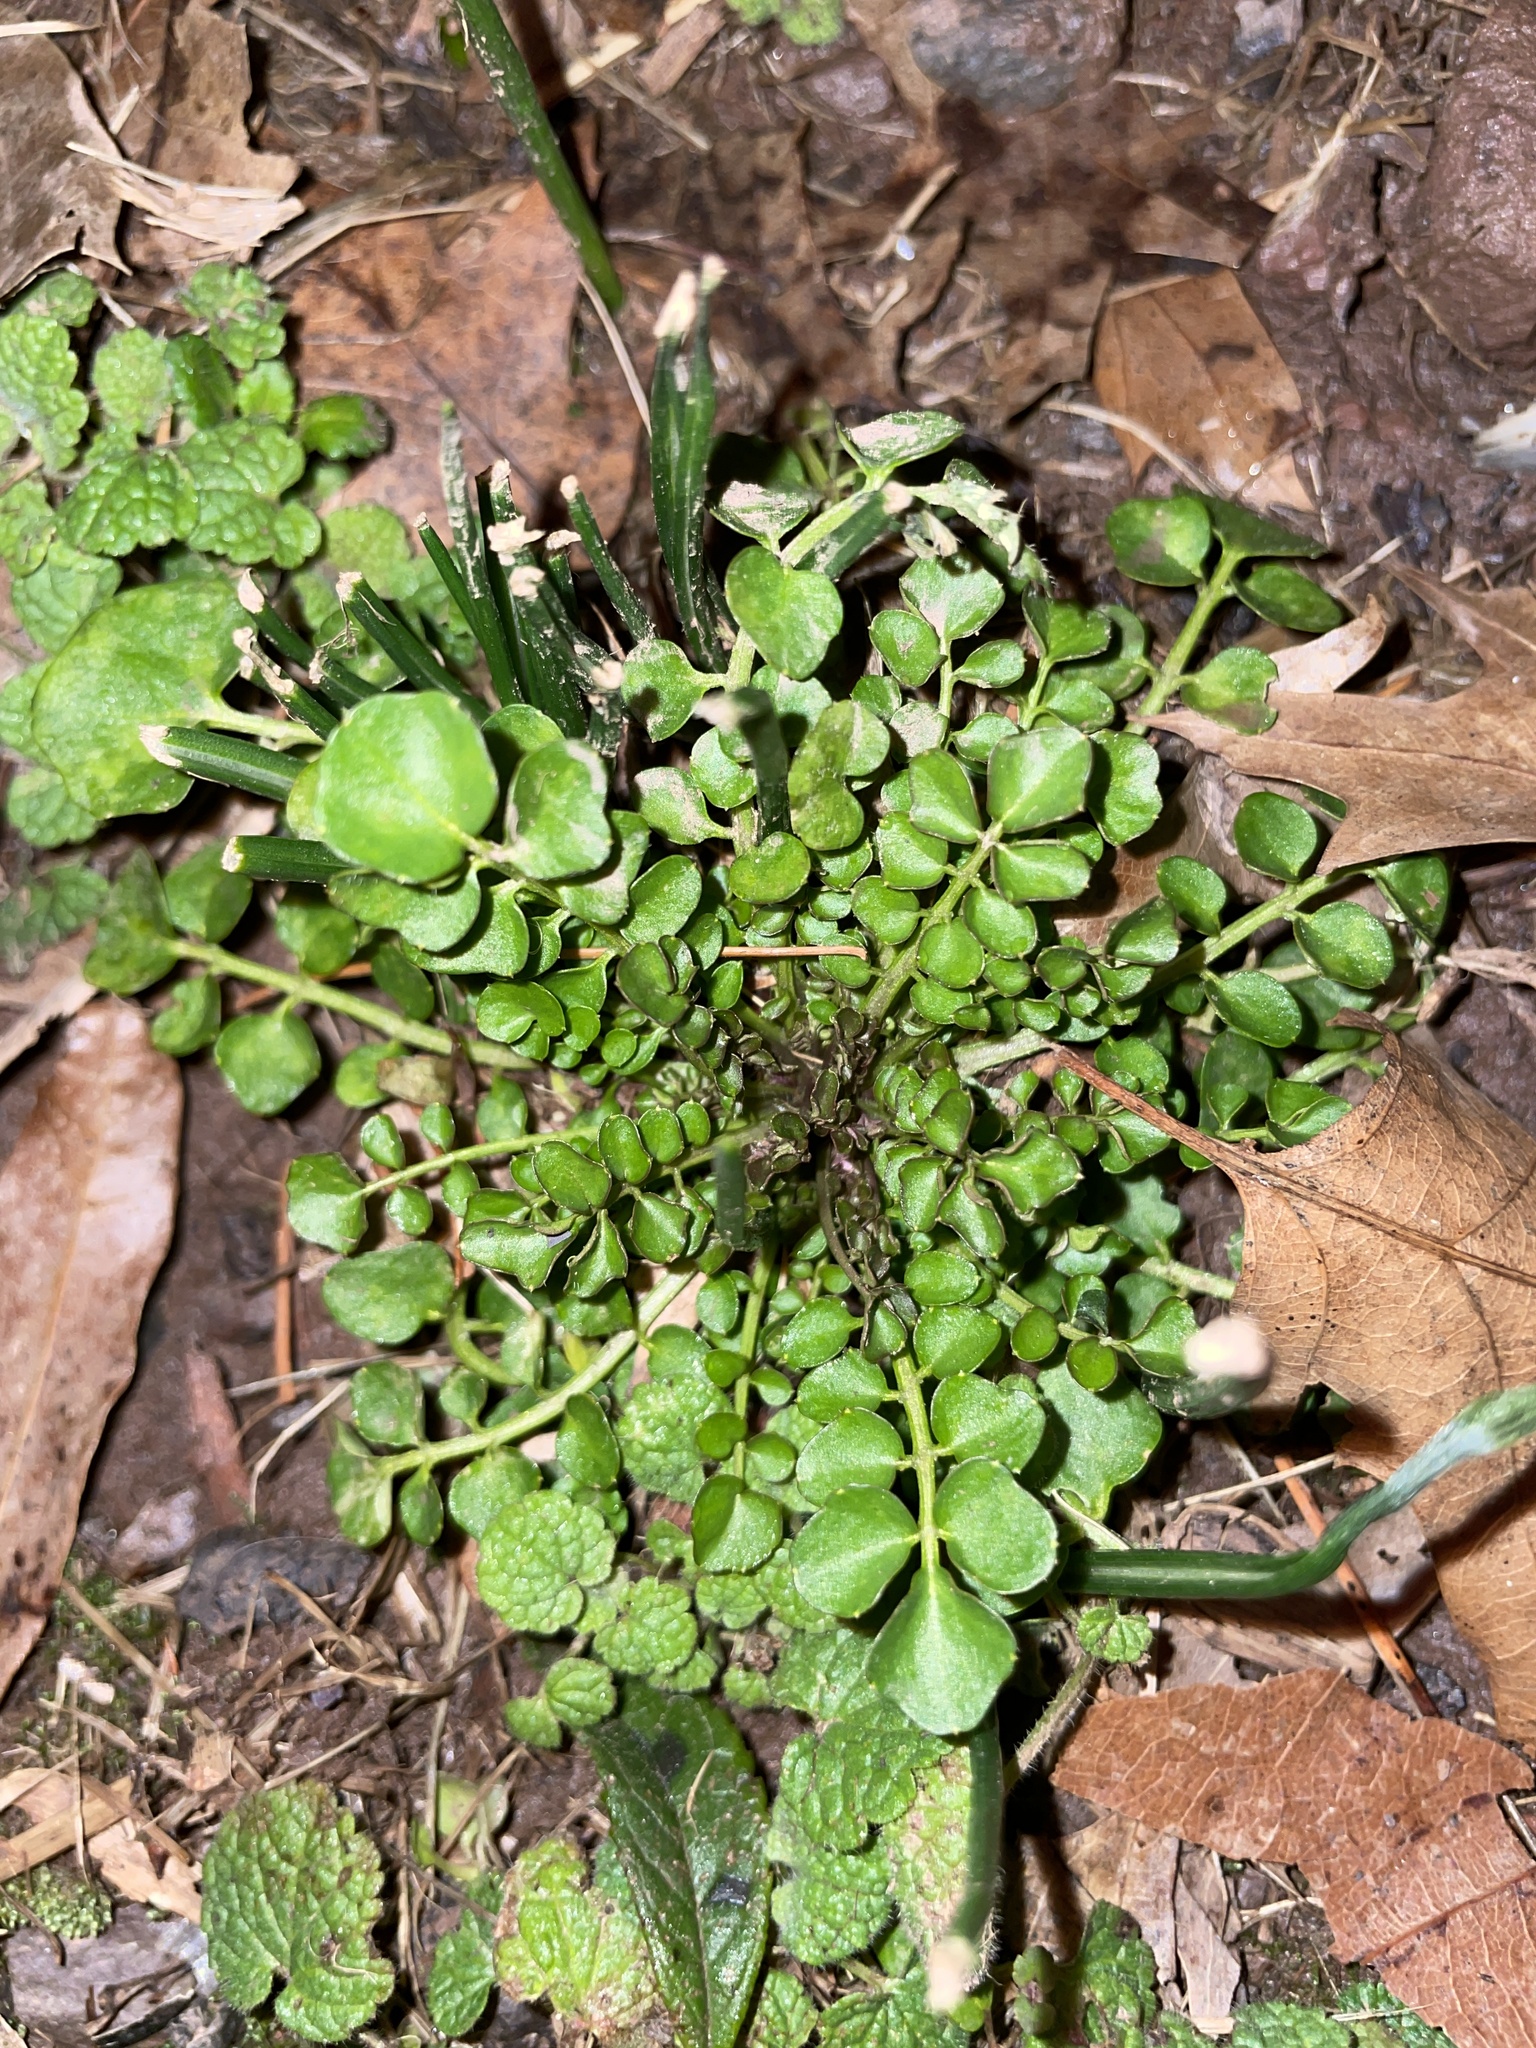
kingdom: Plantae
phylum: Tracheophyta
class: Magnoliopsida
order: Brassicales
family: Brassicaceae
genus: Cardamine
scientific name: Cardamine hirsuta
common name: Hairy bittercress
